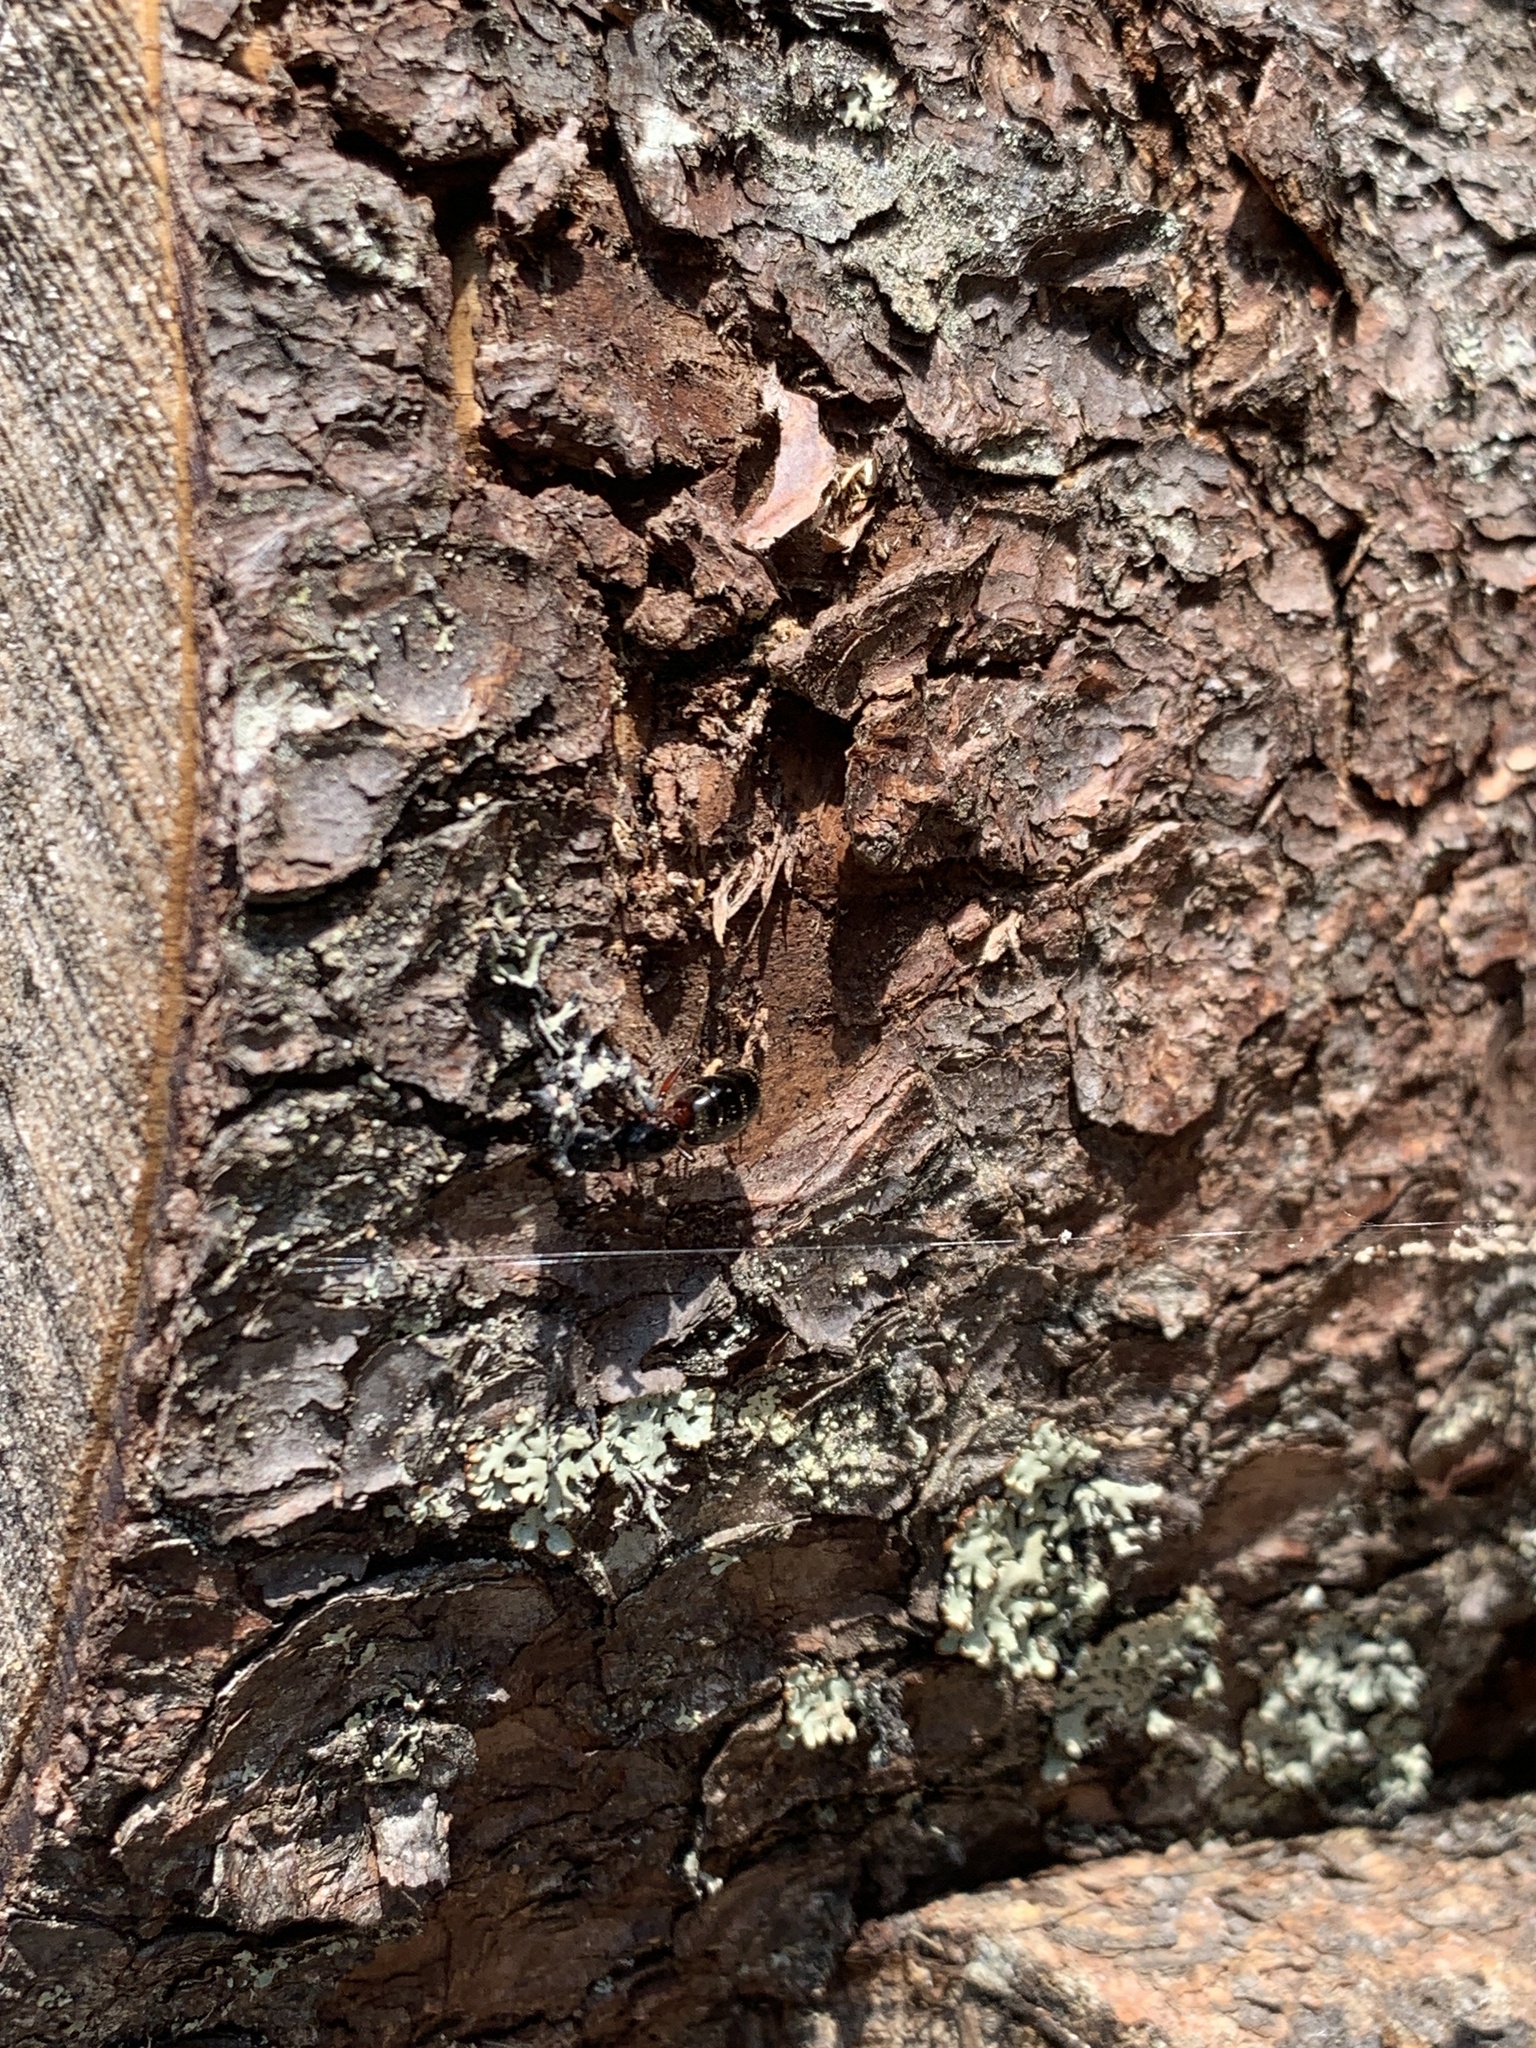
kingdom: Animalia
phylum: Arthropoda
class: Insecta
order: Hymenoptera
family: Formicidae
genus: Camponotus
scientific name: Camponotus ligniperdus
